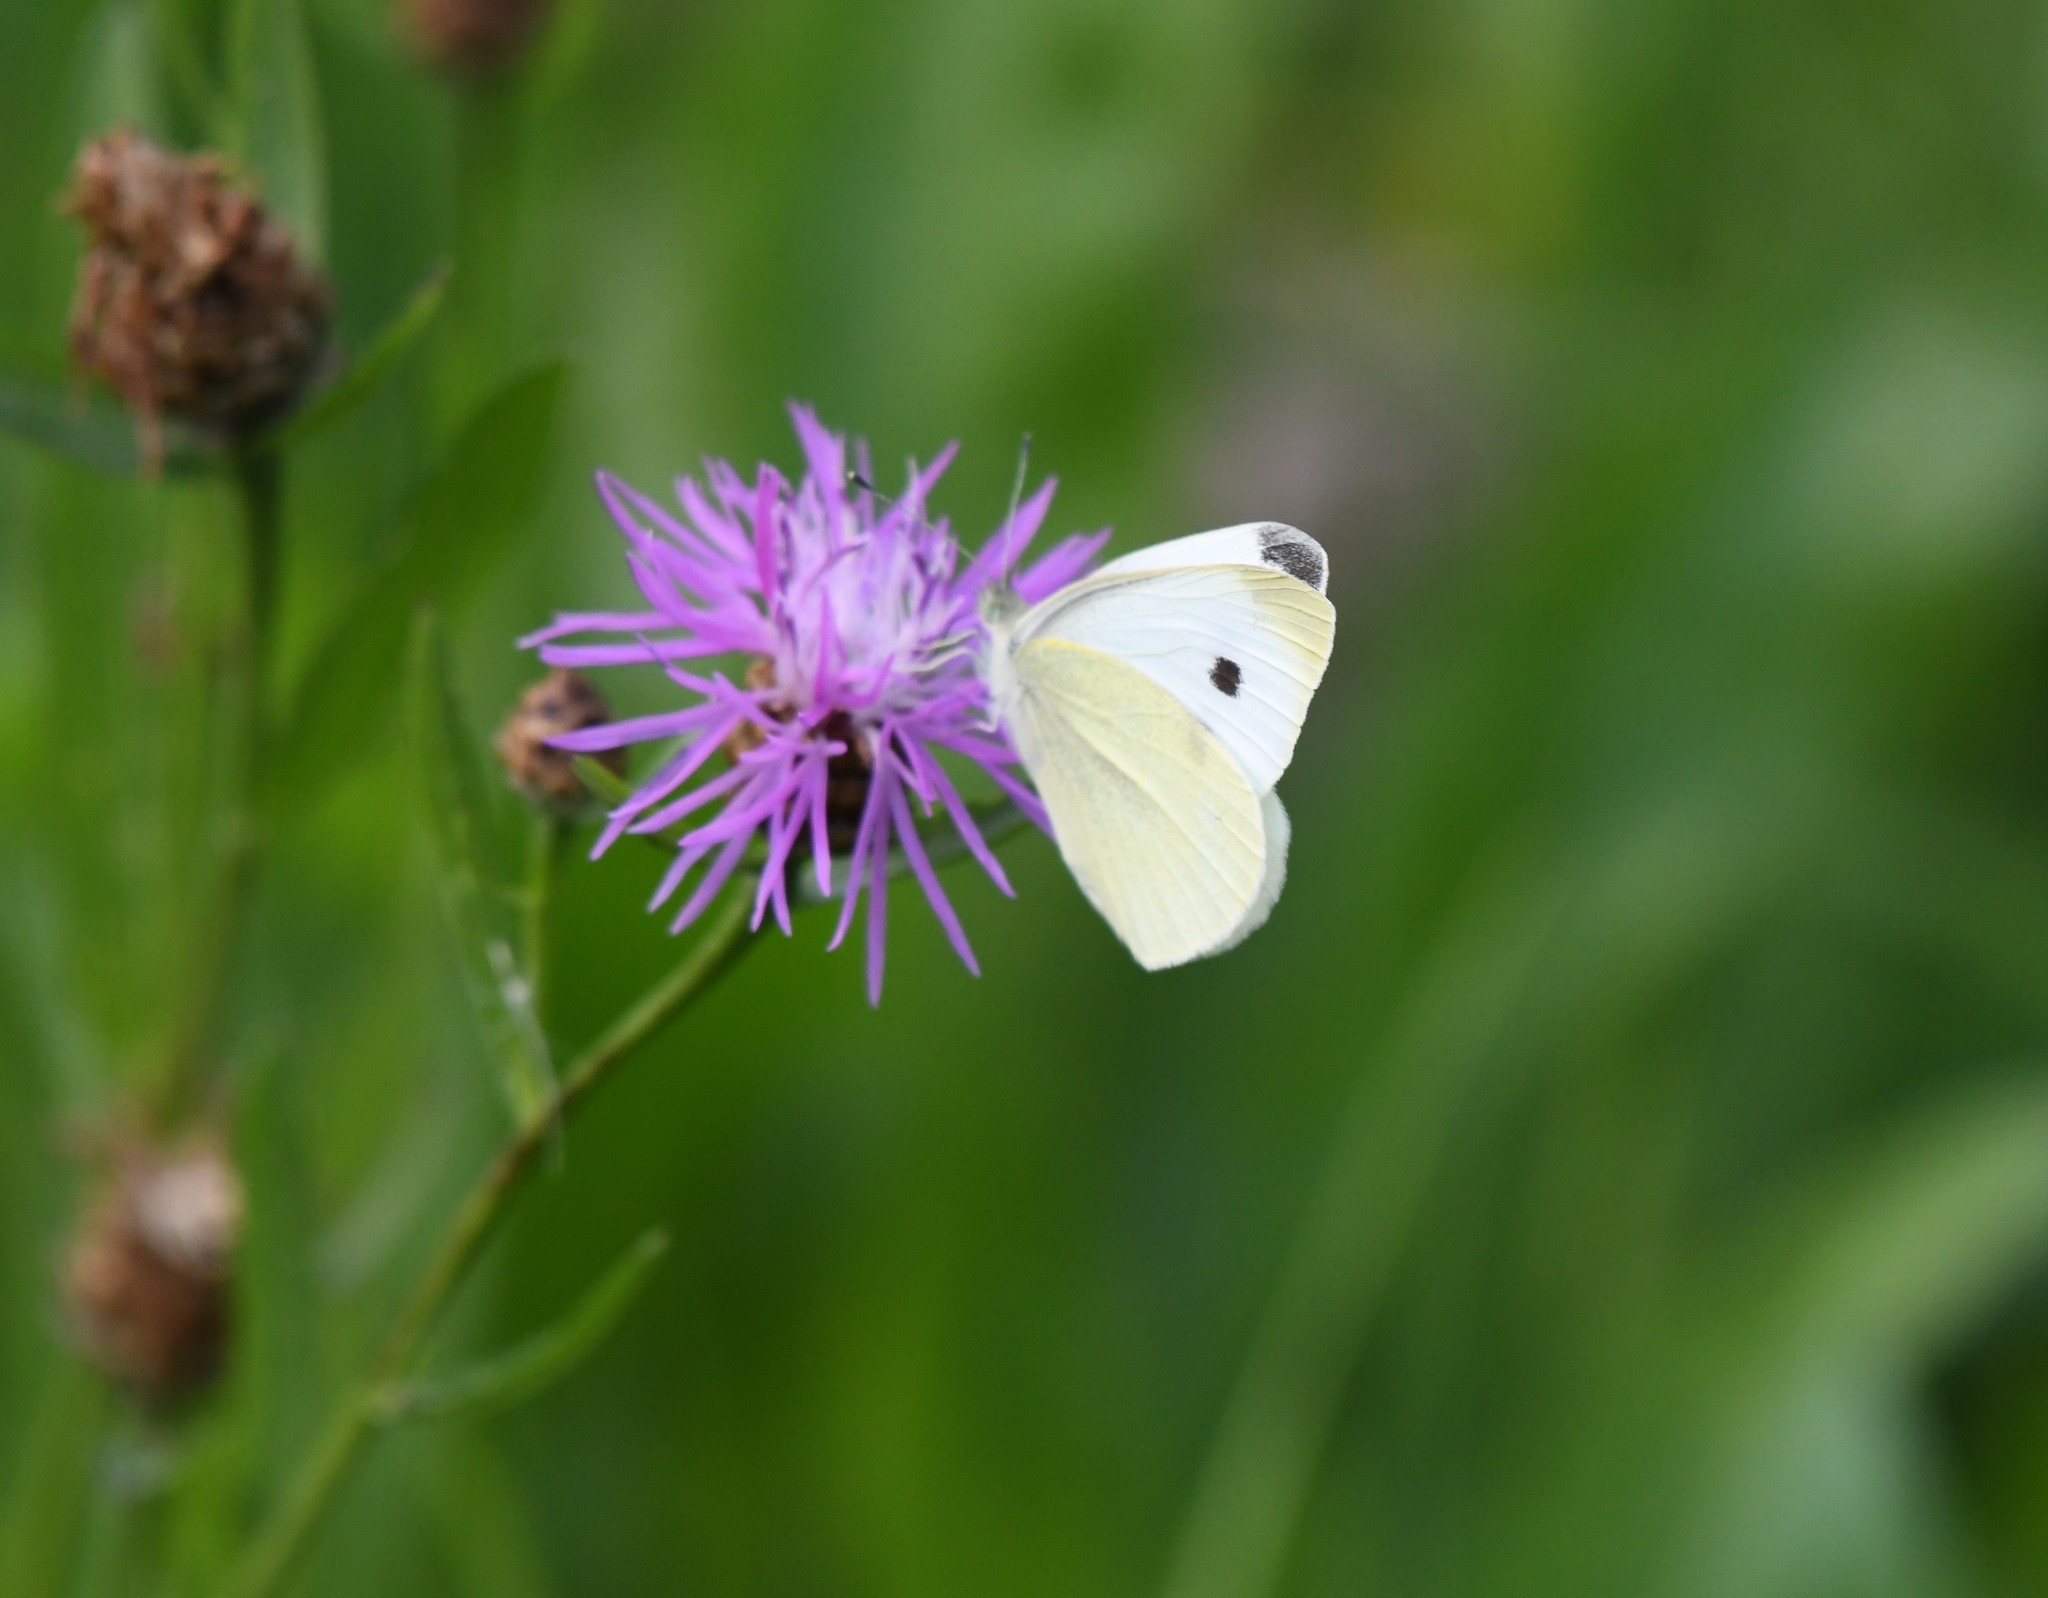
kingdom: Animalia
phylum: Arthropoda
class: Insecta
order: Lepidoptera
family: Pieridae
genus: Pieris
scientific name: Pieris rapae
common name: Small white
